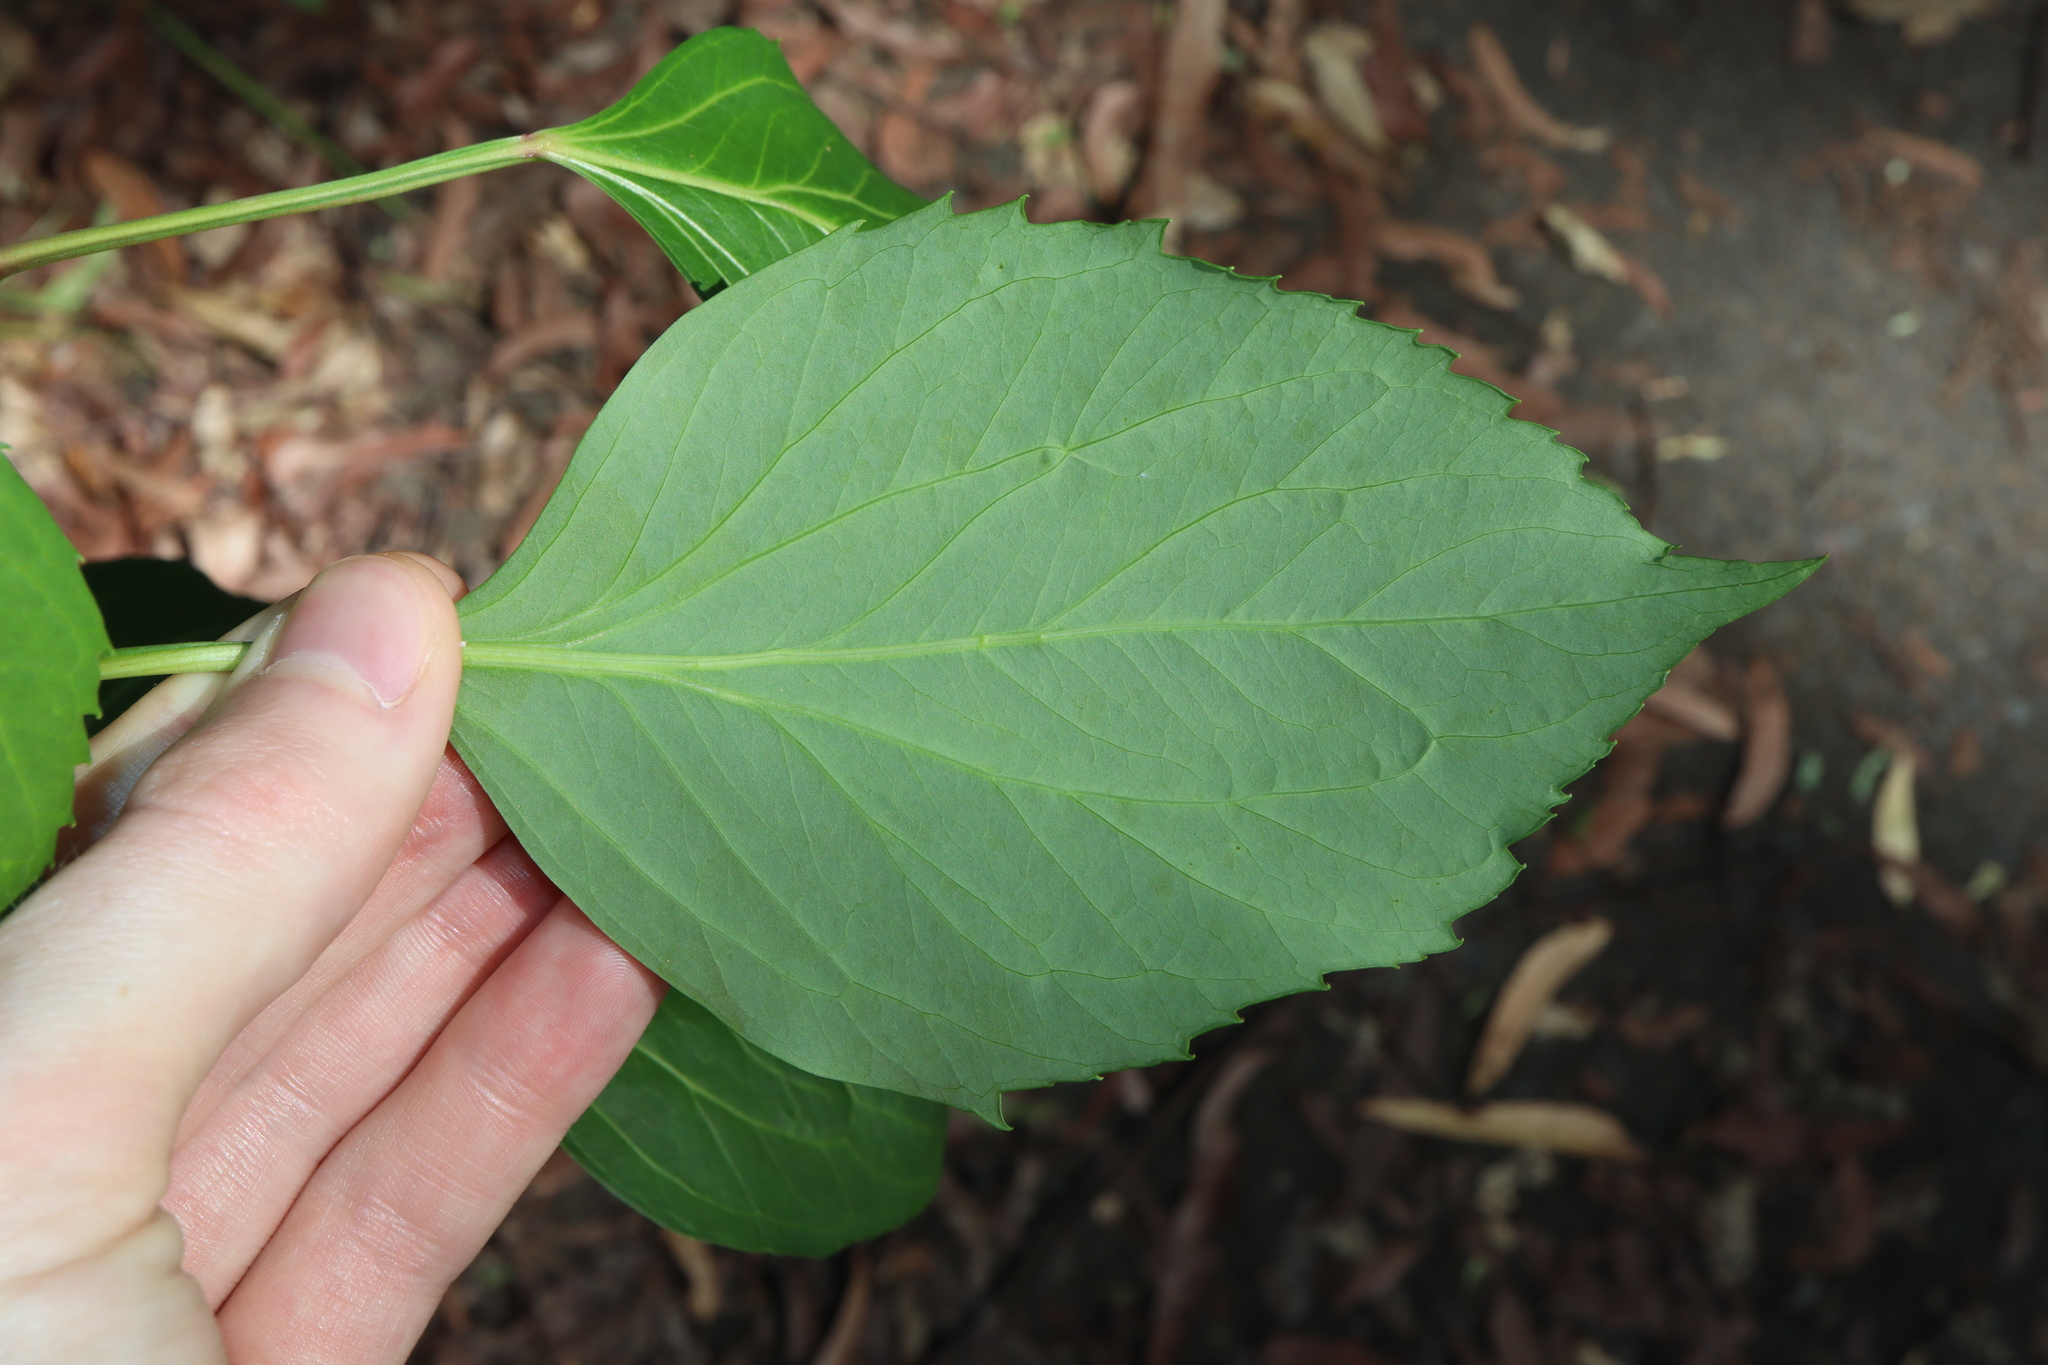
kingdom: Plantae
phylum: Tracheophyta
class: Magnoliopsida
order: Apiales
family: Araliaceae
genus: Polyscias
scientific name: Polyscias sambucifolia
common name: Elderberry-ash
